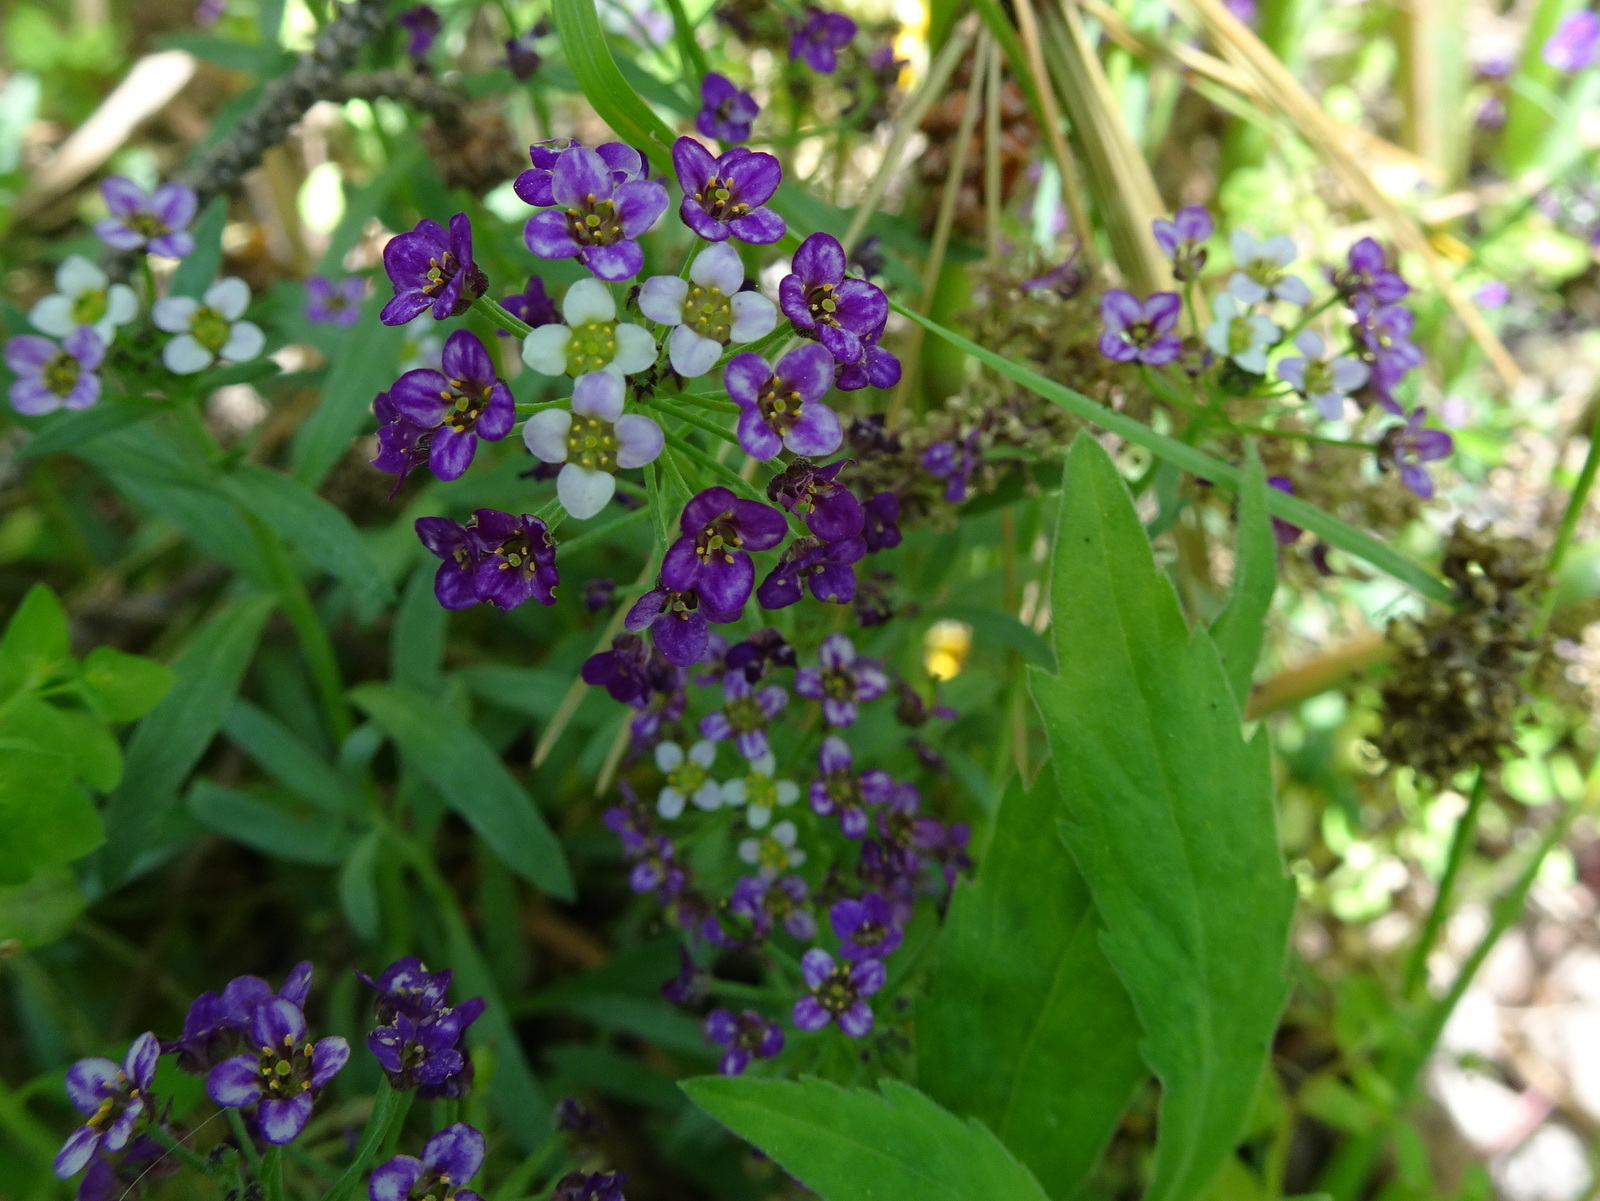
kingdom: Plantae
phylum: Tracheophyta
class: Magnoliopsida
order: Brassicales
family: Brassicaceae
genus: Lobularia
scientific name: Lobularia maritima
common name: Sweet alison
